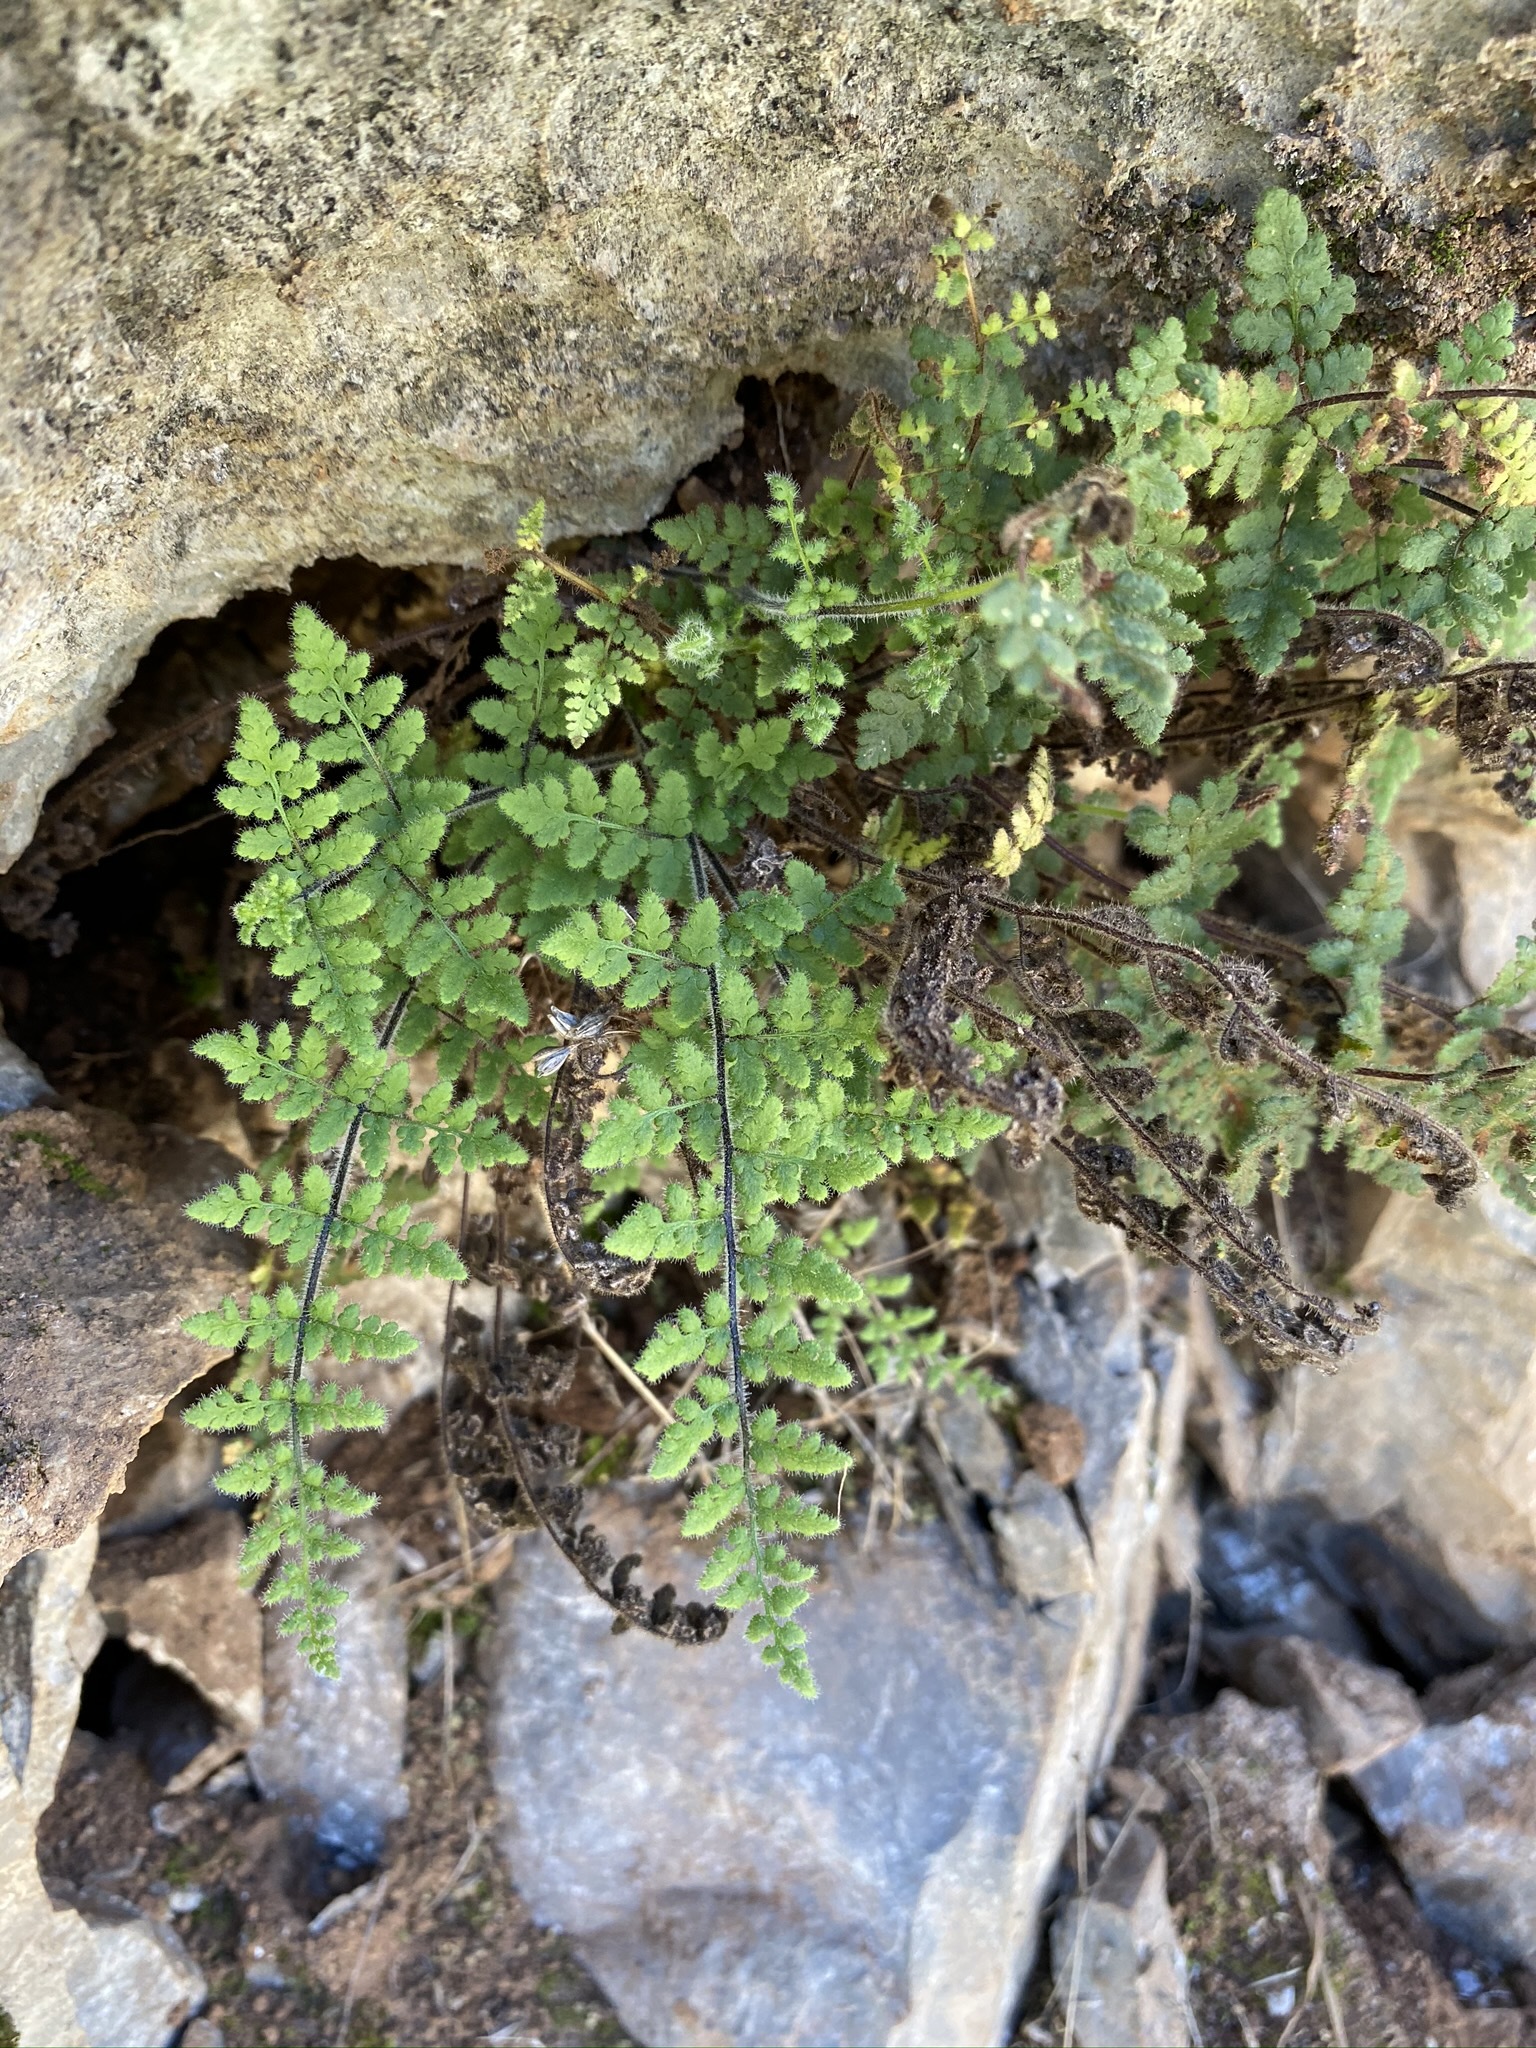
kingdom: Plantae
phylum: Tracheophyta
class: Polypodiopsida
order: Polypodiales
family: Pteridaceae
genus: Myriopteris
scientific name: Myriopteris cooperae
